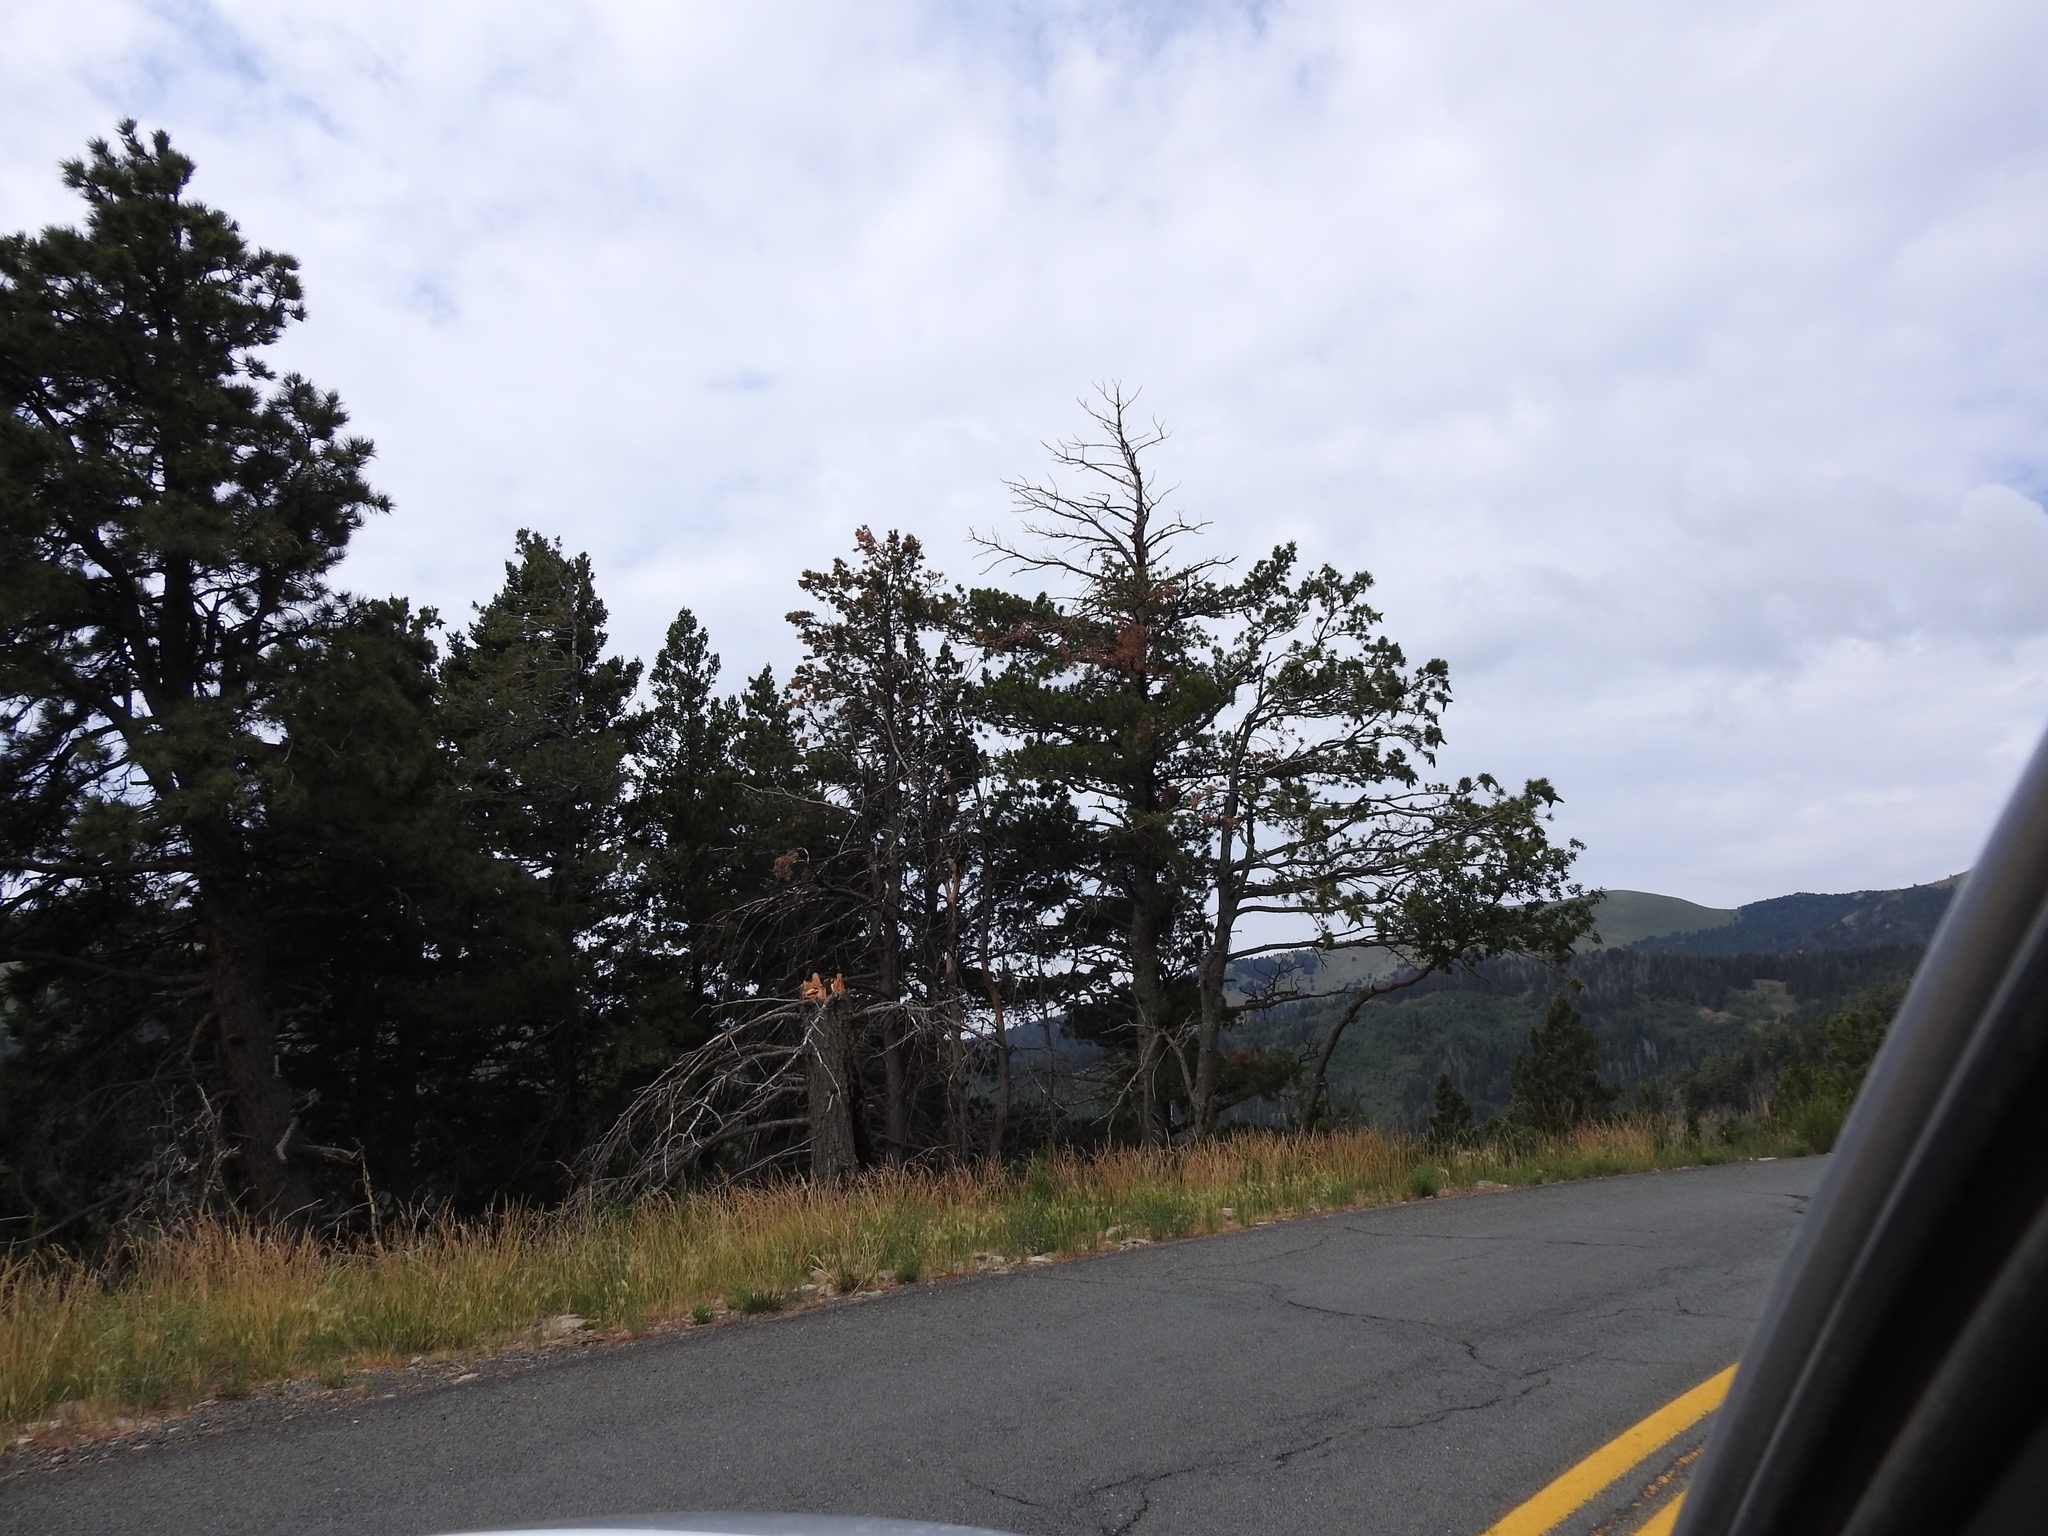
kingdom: Plantae
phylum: Tracheophyta
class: Pinopsida
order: Pinales
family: Pinaceae
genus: Pinus
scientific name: Pinus strobiformis
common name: Southwestern white pine
